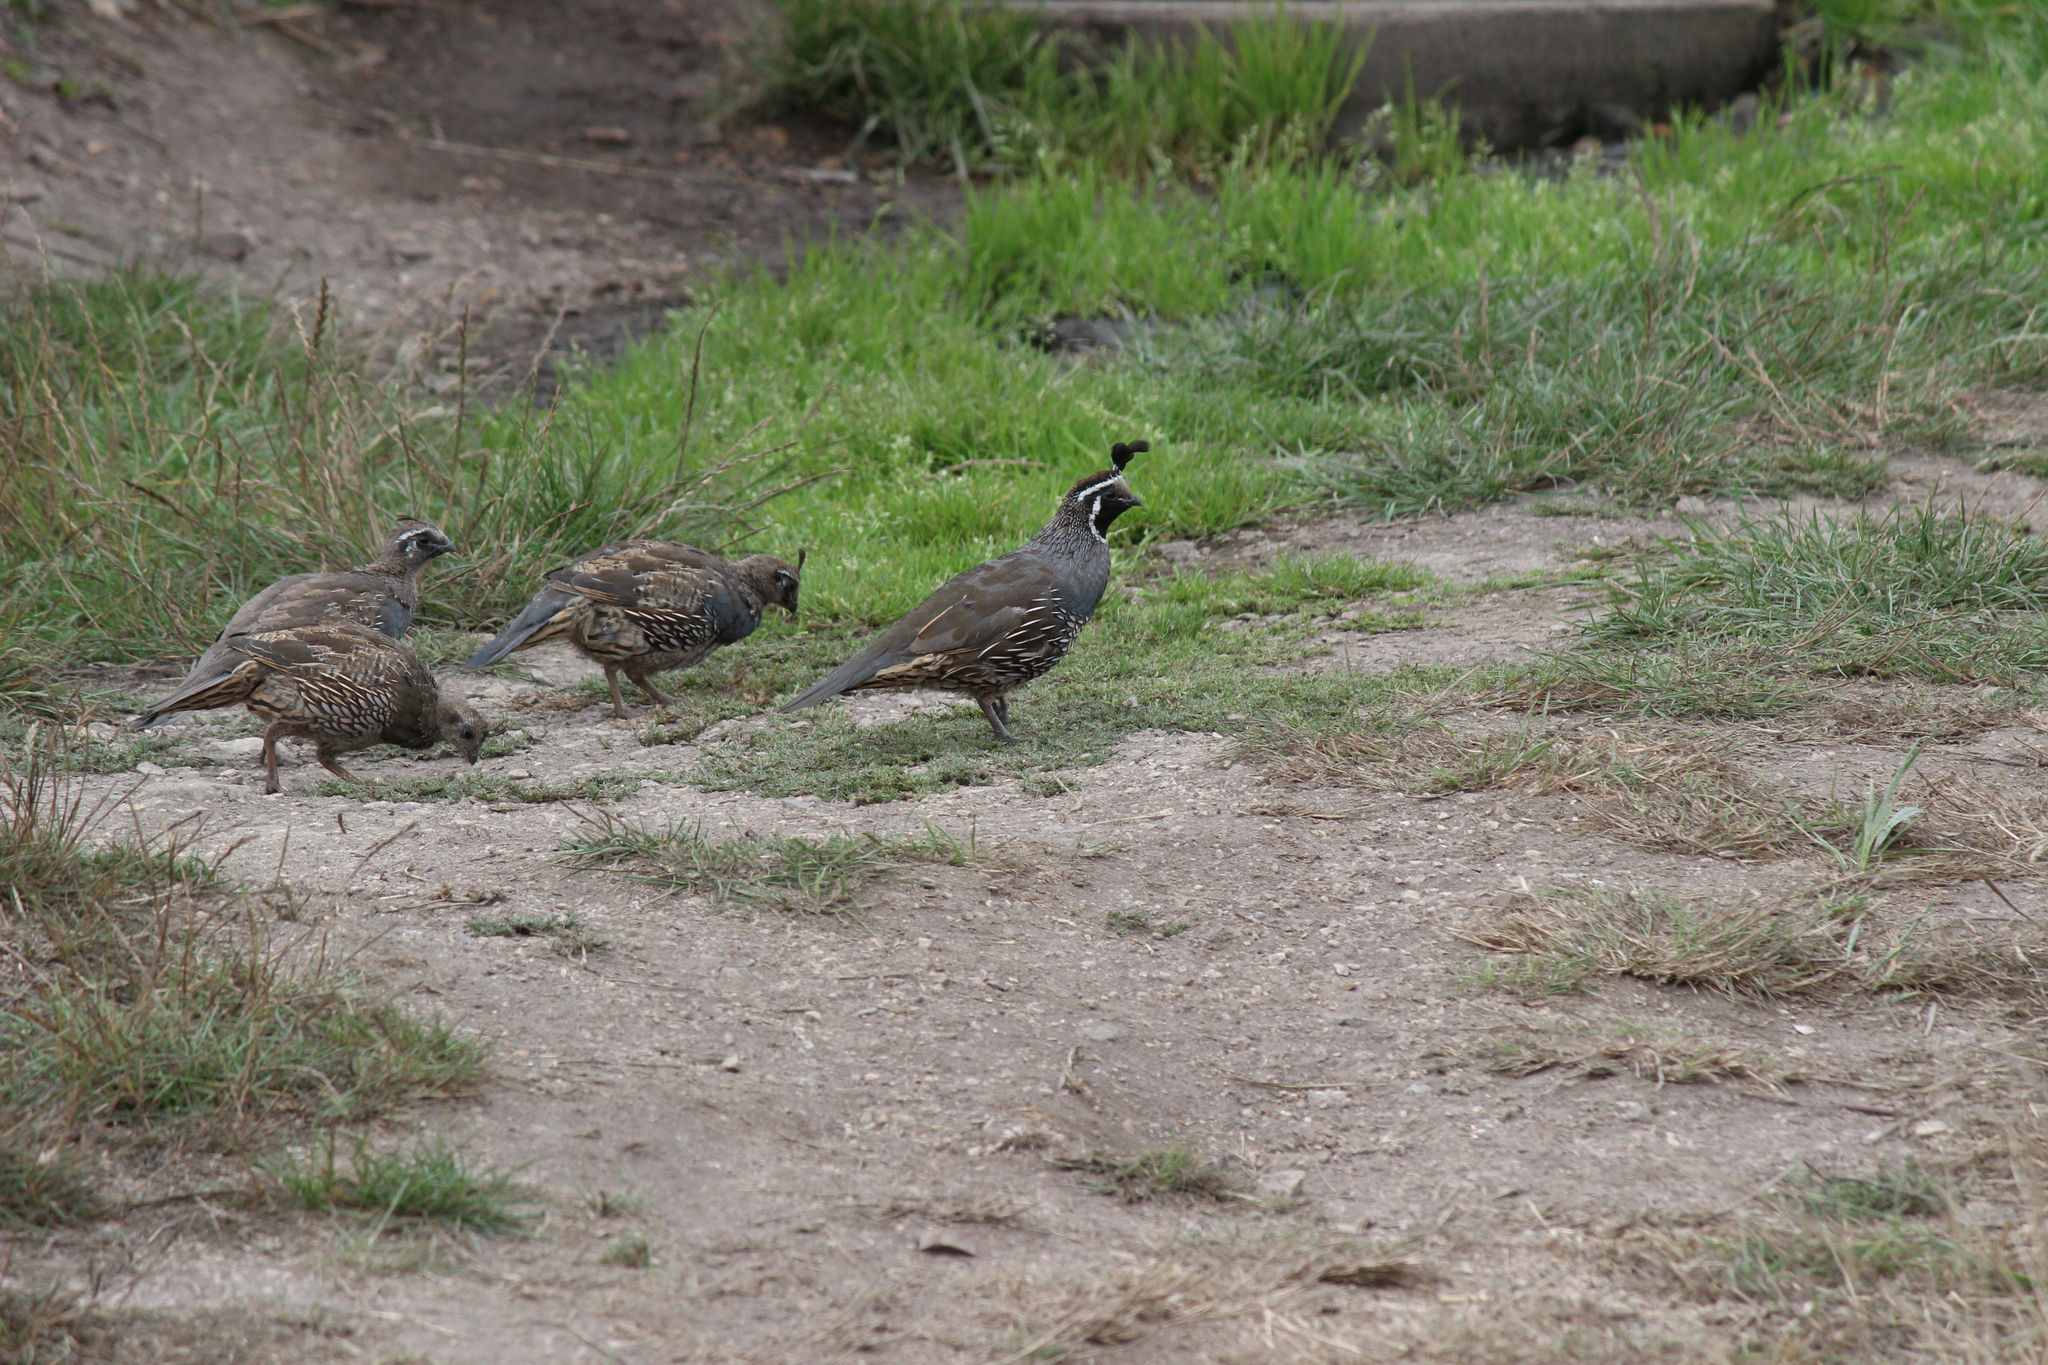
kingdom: Animalia
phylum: Chordata
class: Aves
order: Galliformes
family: Odontophoridae
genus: Callipepla
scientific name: Callipepla californica
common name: California quail
